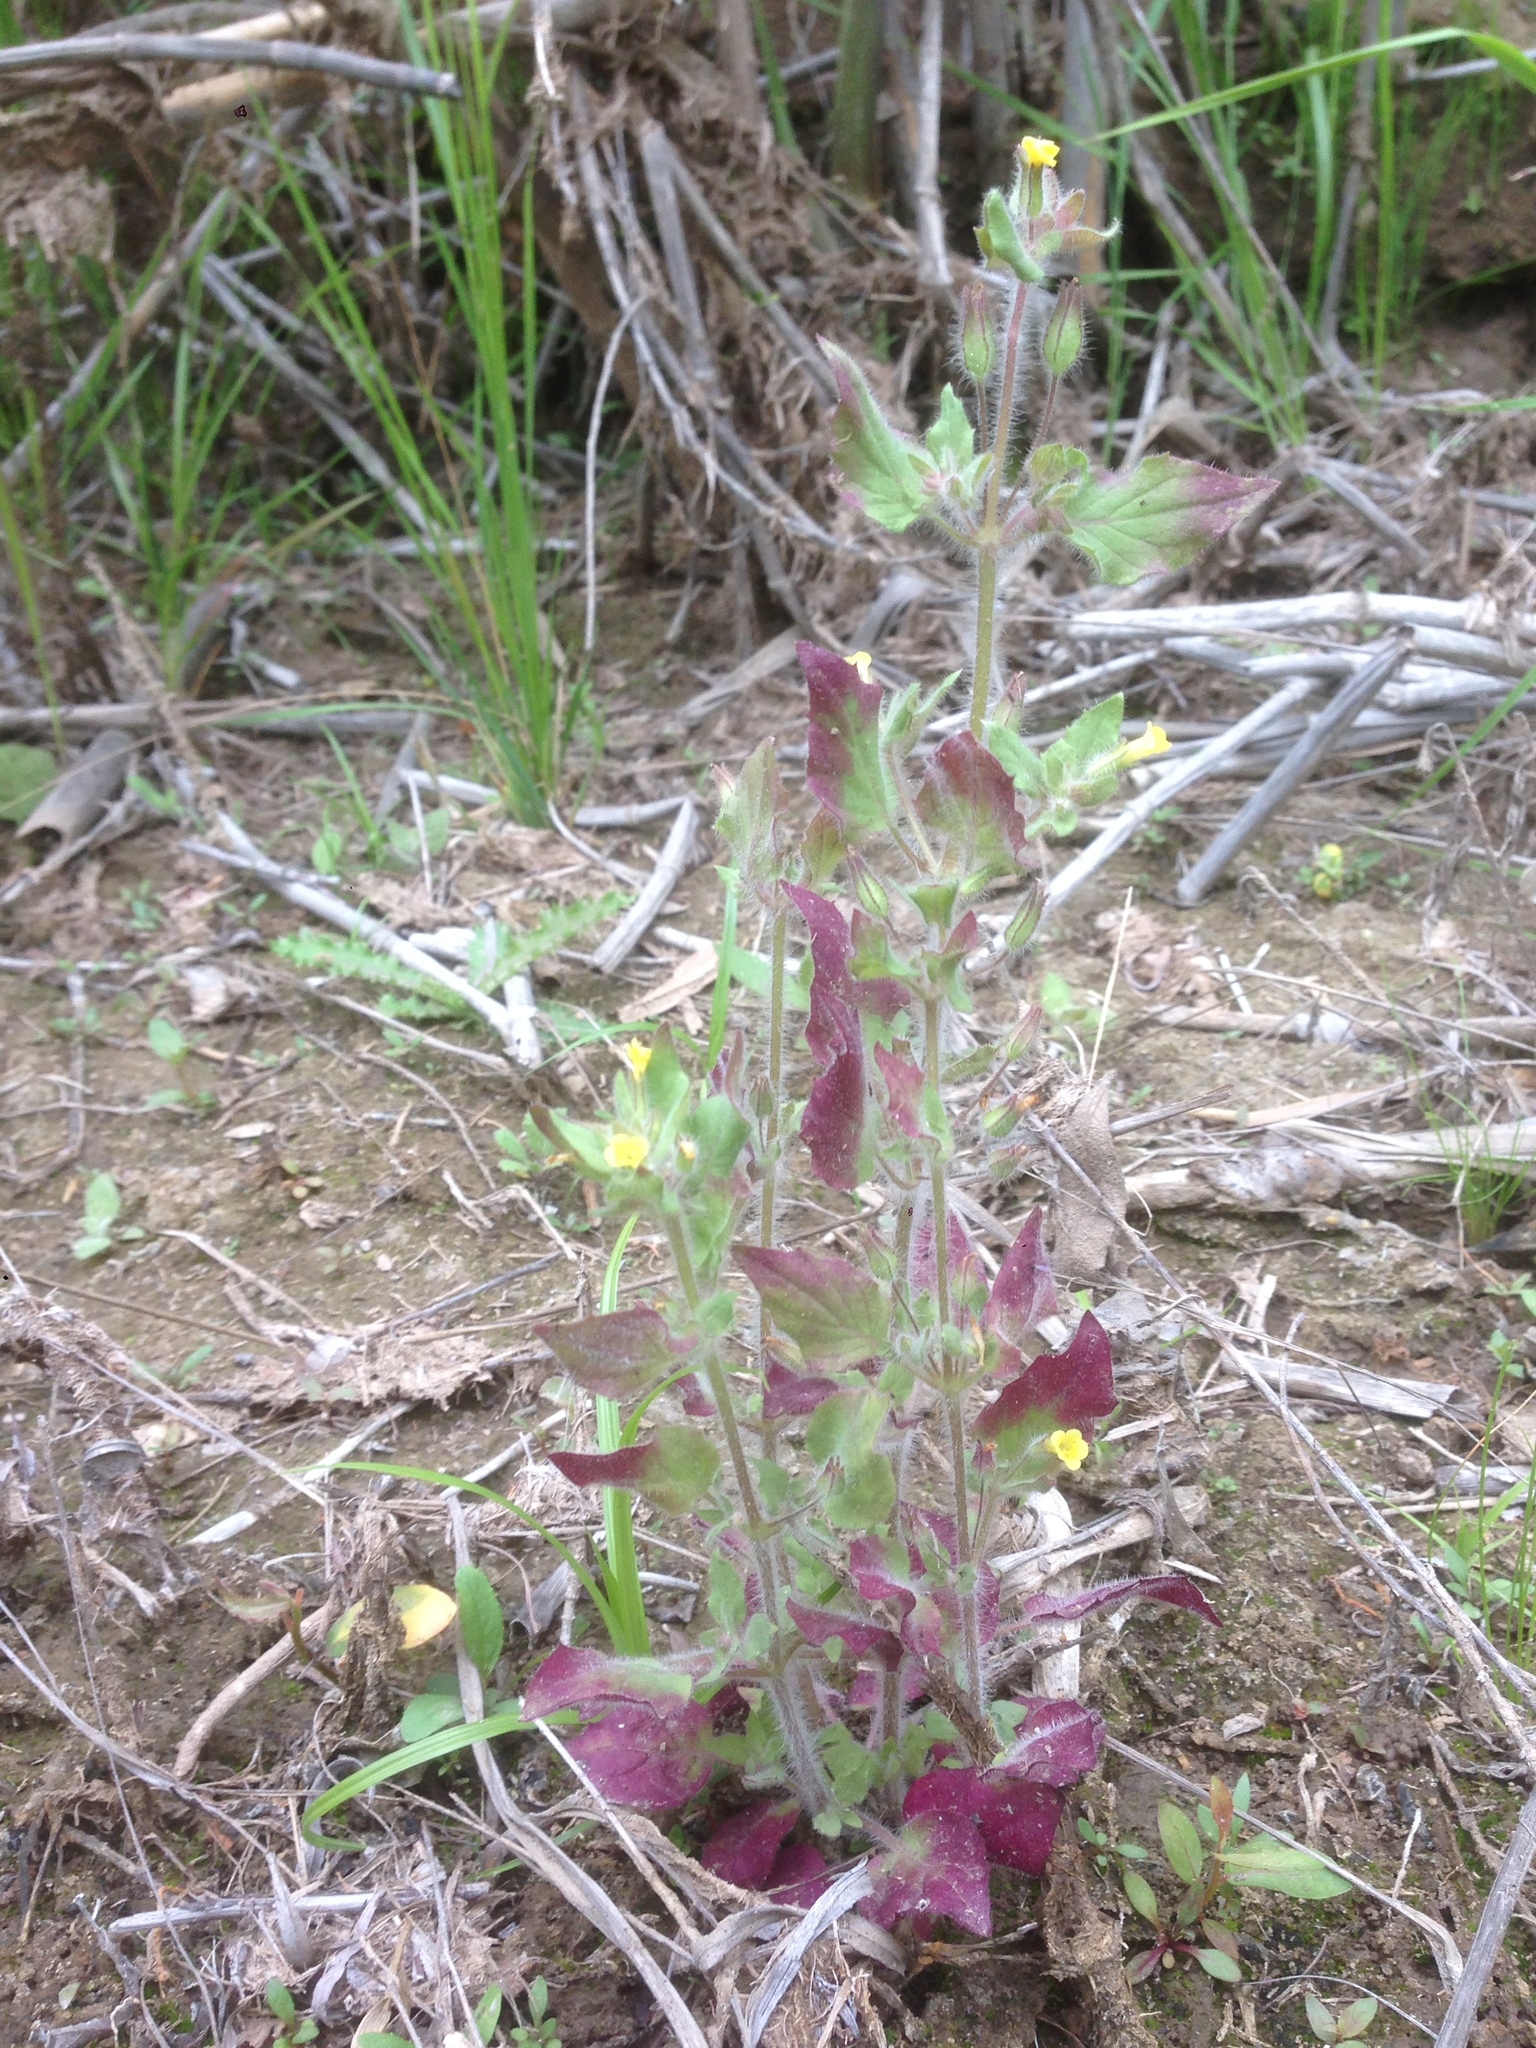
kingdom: Plantae
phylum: Tracheophyta
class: Magnoliopsida
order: Lamiales
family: Phrymaceae
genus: Erythranthe
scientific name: Erythranthe floribunda
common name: Floriferous monkeyflower
